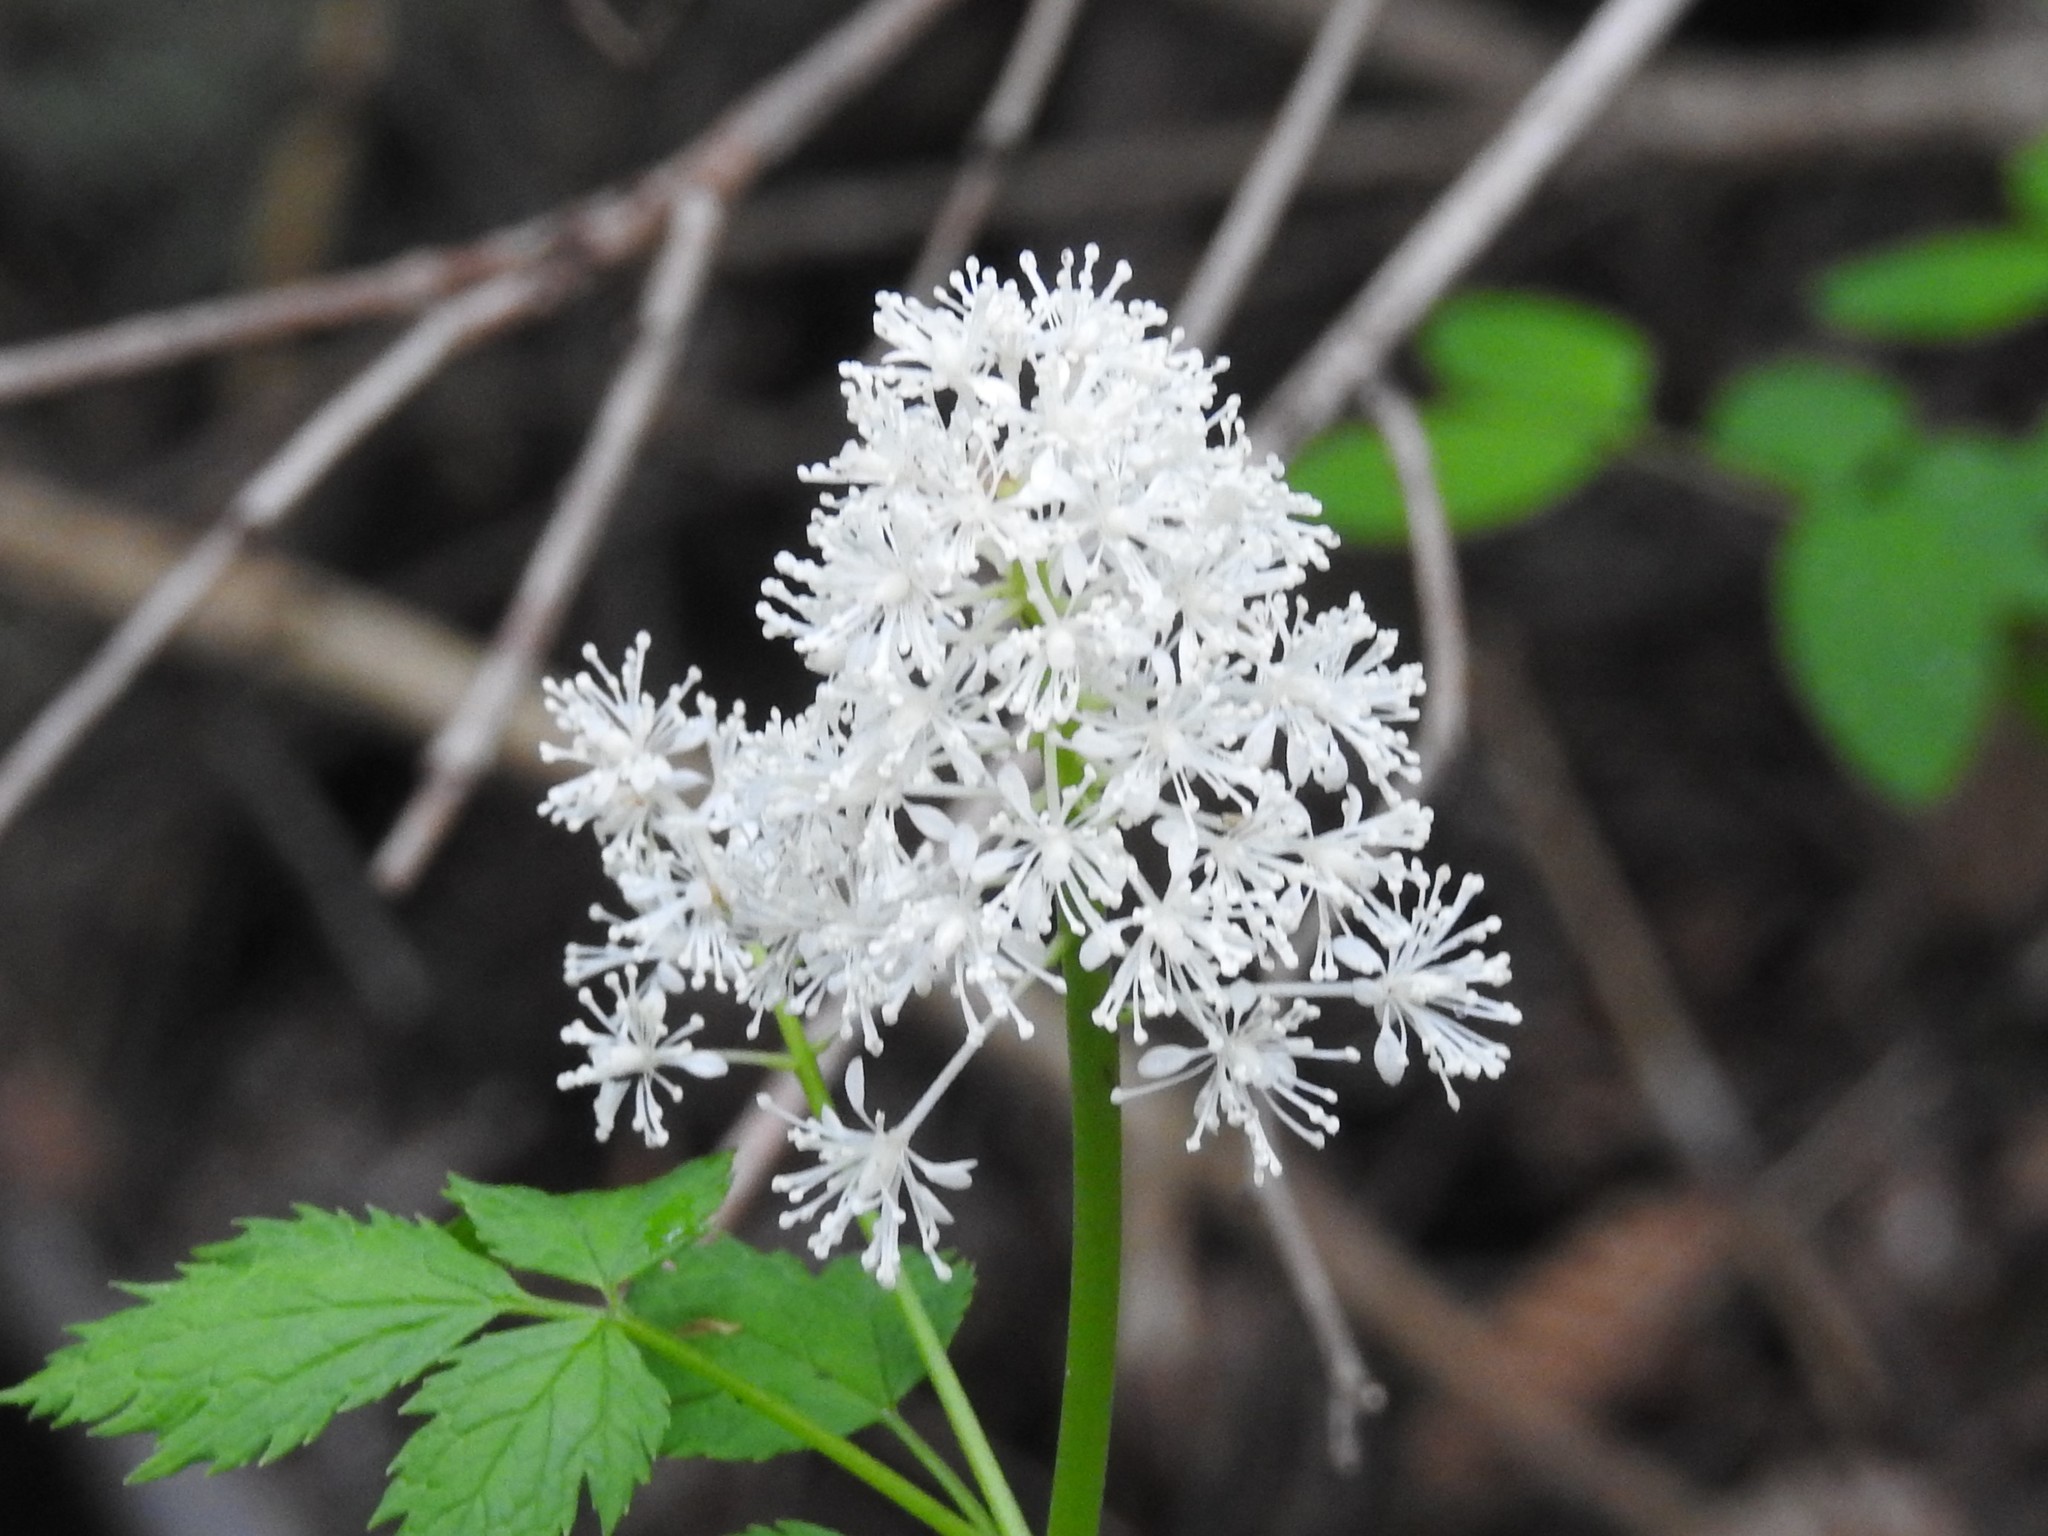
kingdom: Plantae
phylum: Tracheophyta
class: Magnoliopsida
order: Ranunculales
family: Ranunculaceae
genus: Actaea
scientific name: Actaea rubra
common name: Red baneberry
